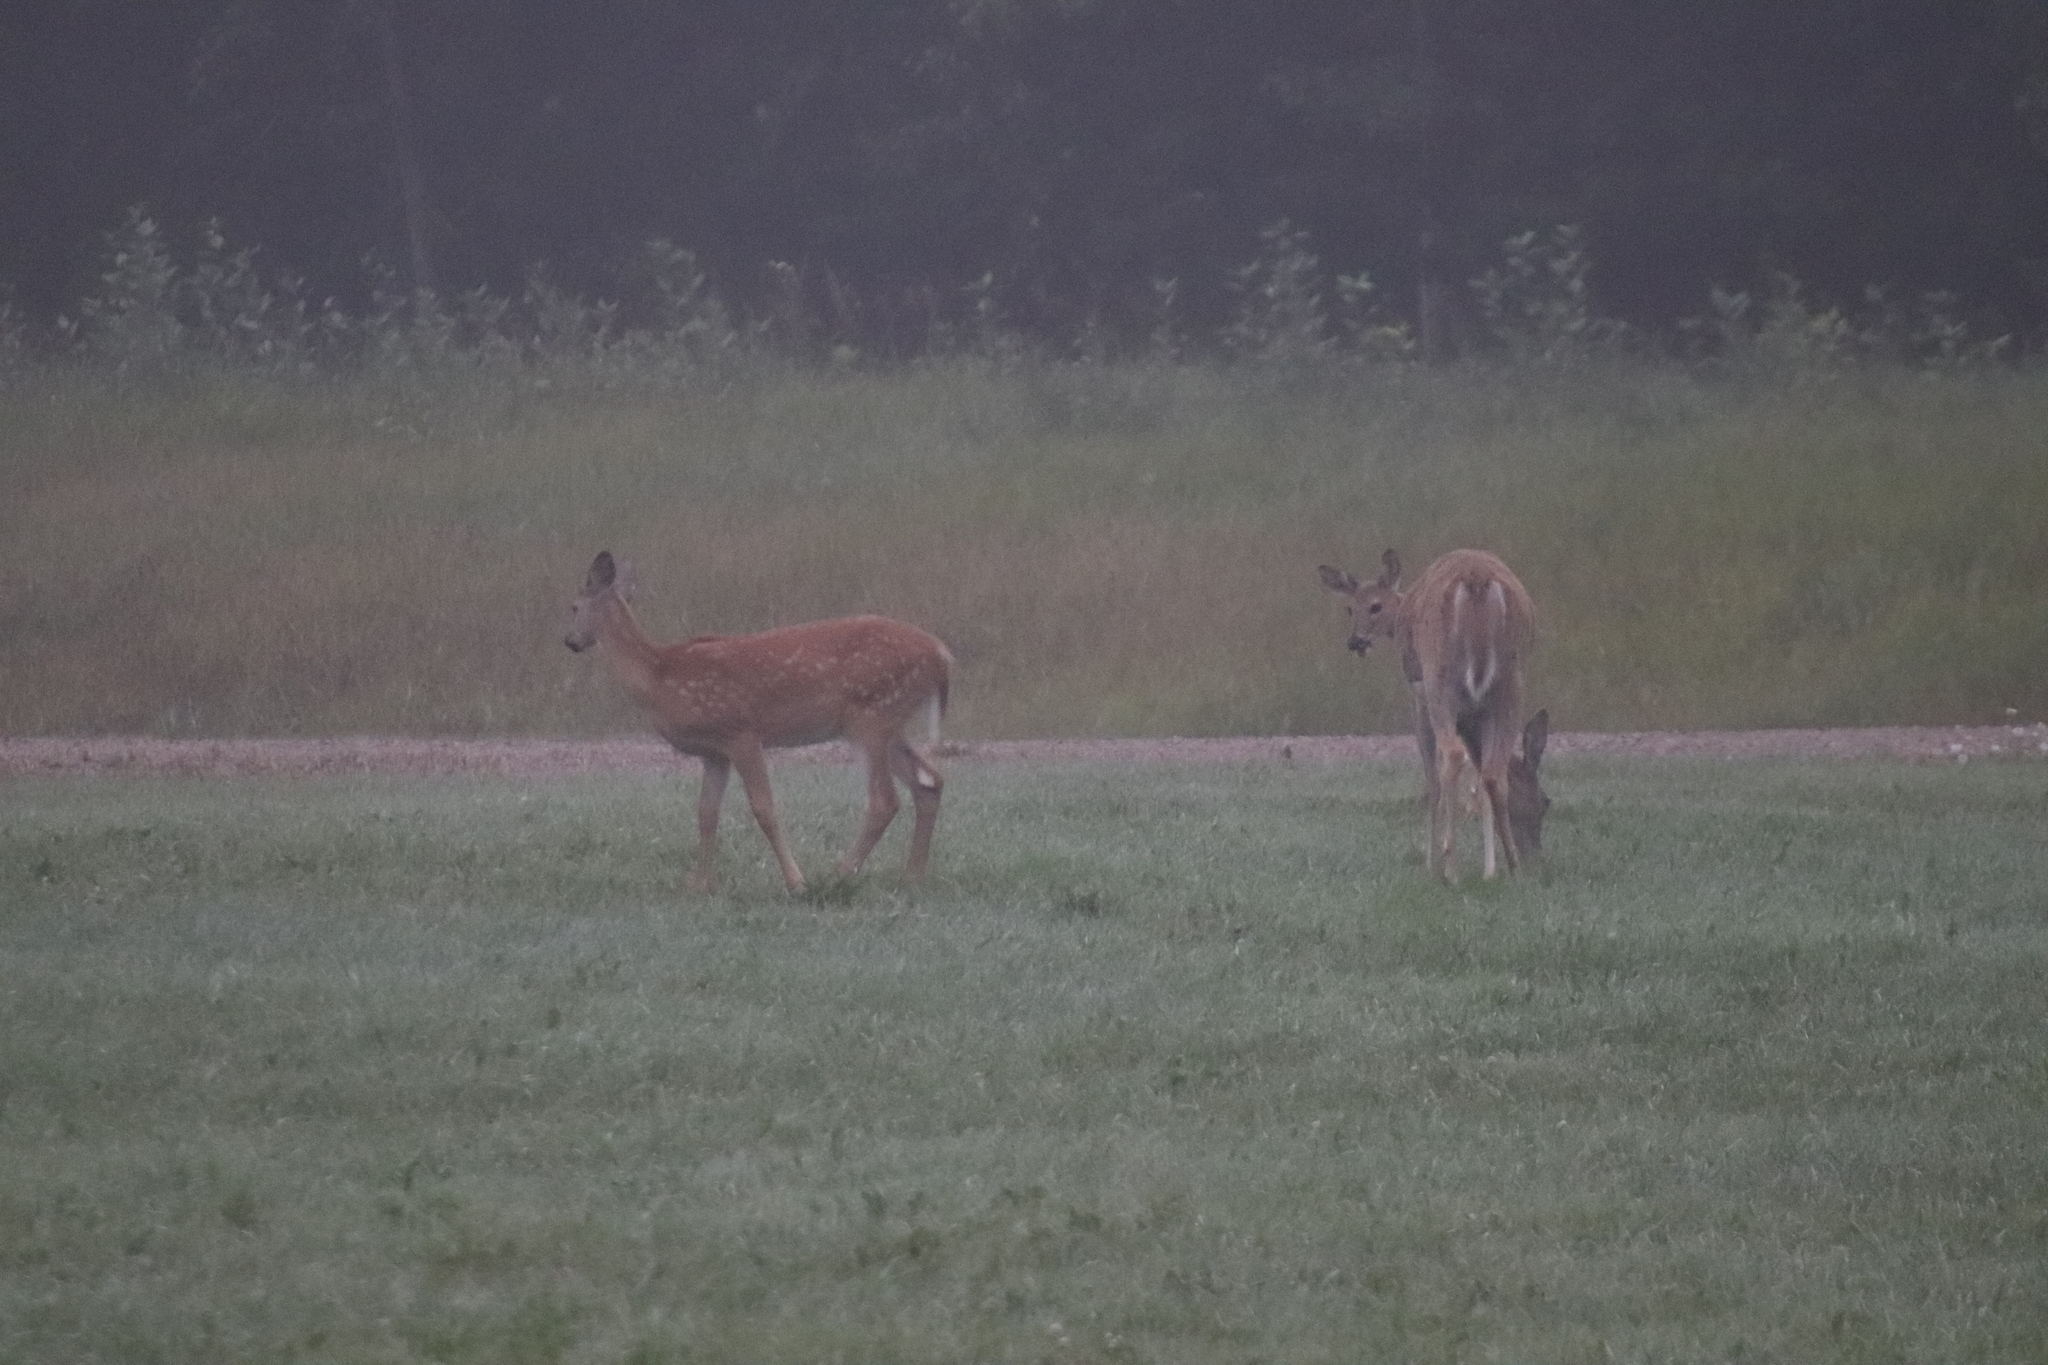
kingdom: Animalia
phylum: Chordata
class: Mammalia
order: Artiodactyla
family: Cervidae
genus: Odocoileus
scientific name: Odocoileus virginianus
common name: White-tailed deer
